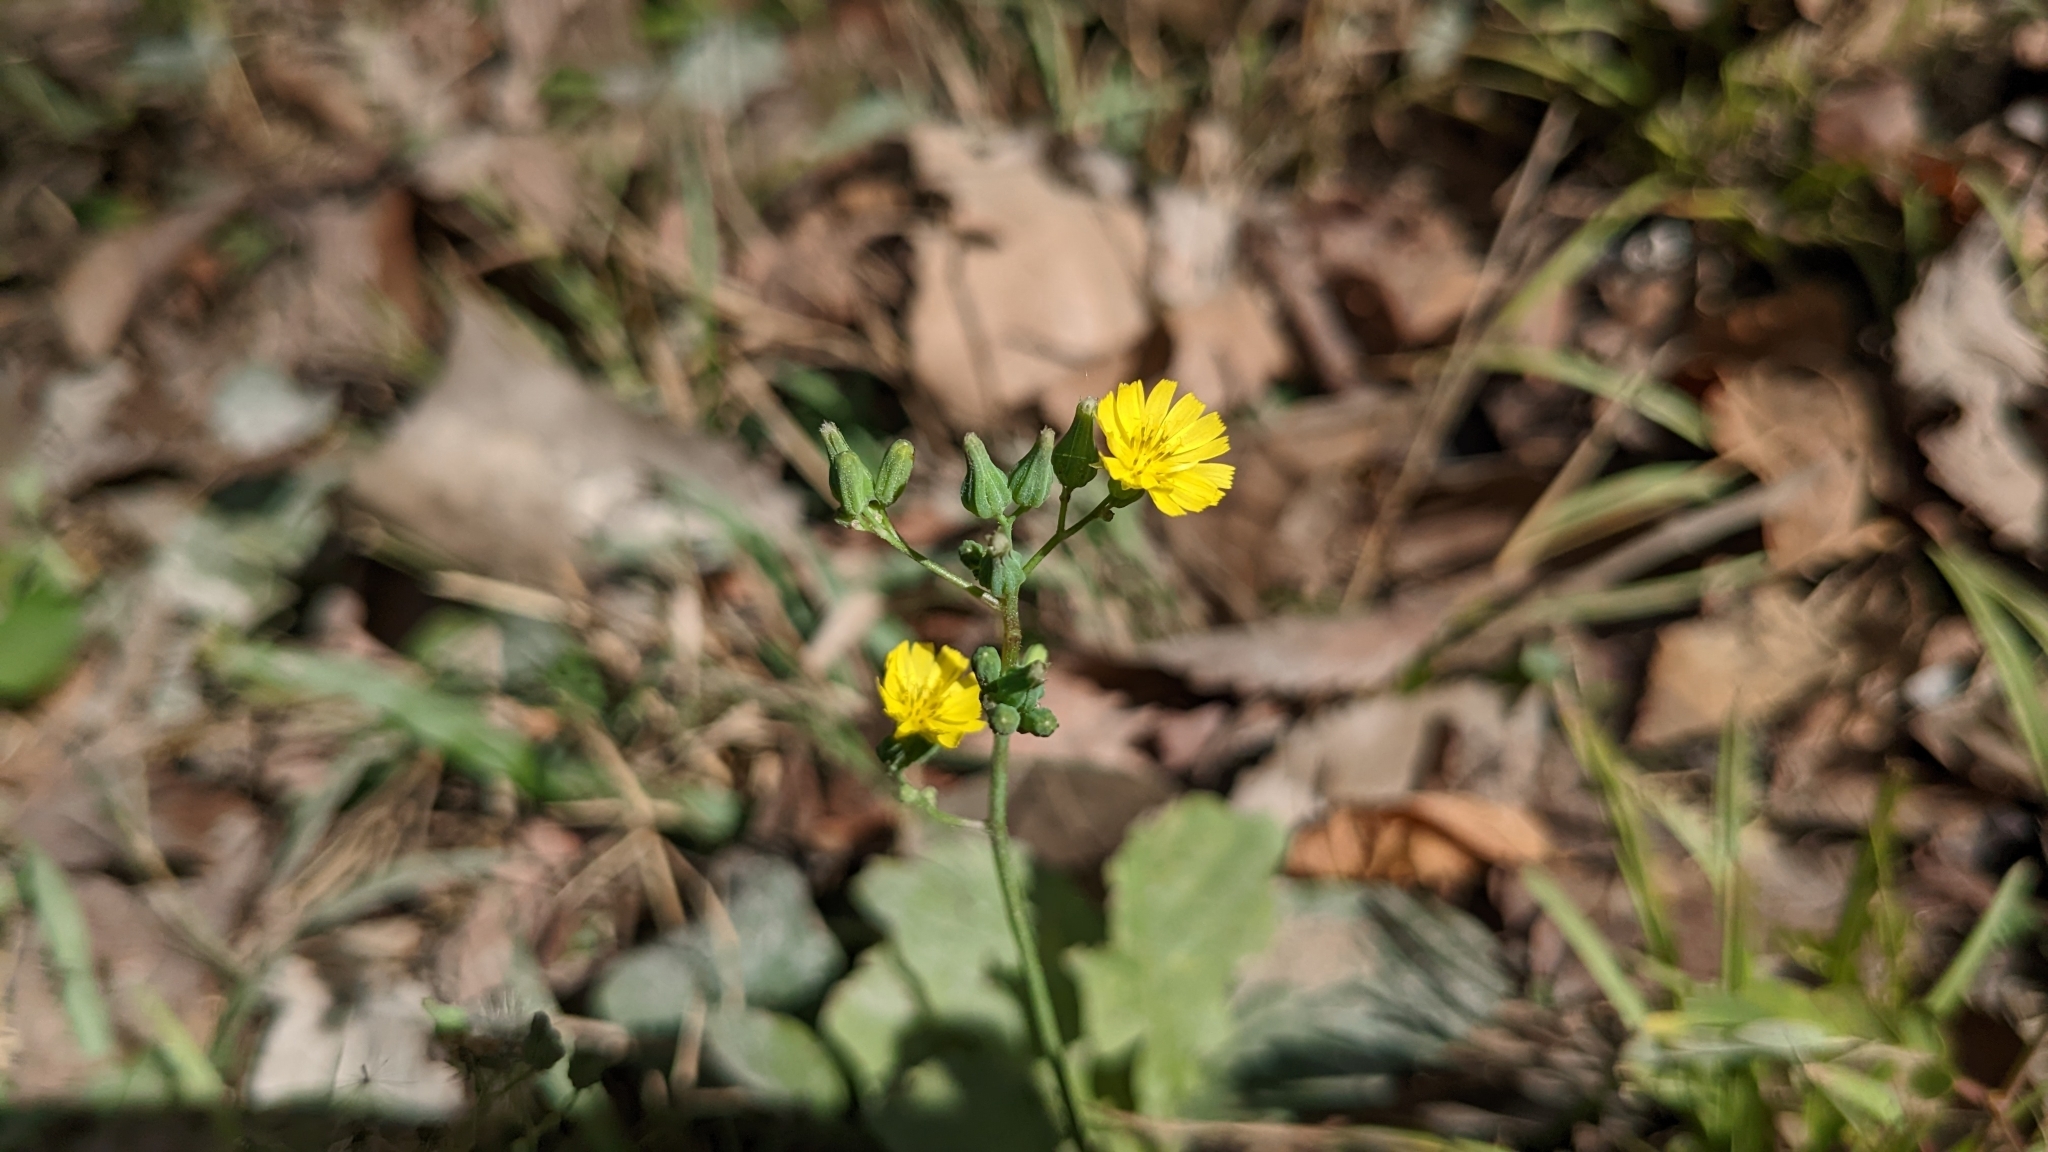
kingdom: Plantae
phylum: Tracheophyta
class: Magnoliopsida
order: Asterales
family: Asteraceae
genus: Youngia
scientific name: Youngia japonica
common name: Oriental false hawksbeard
